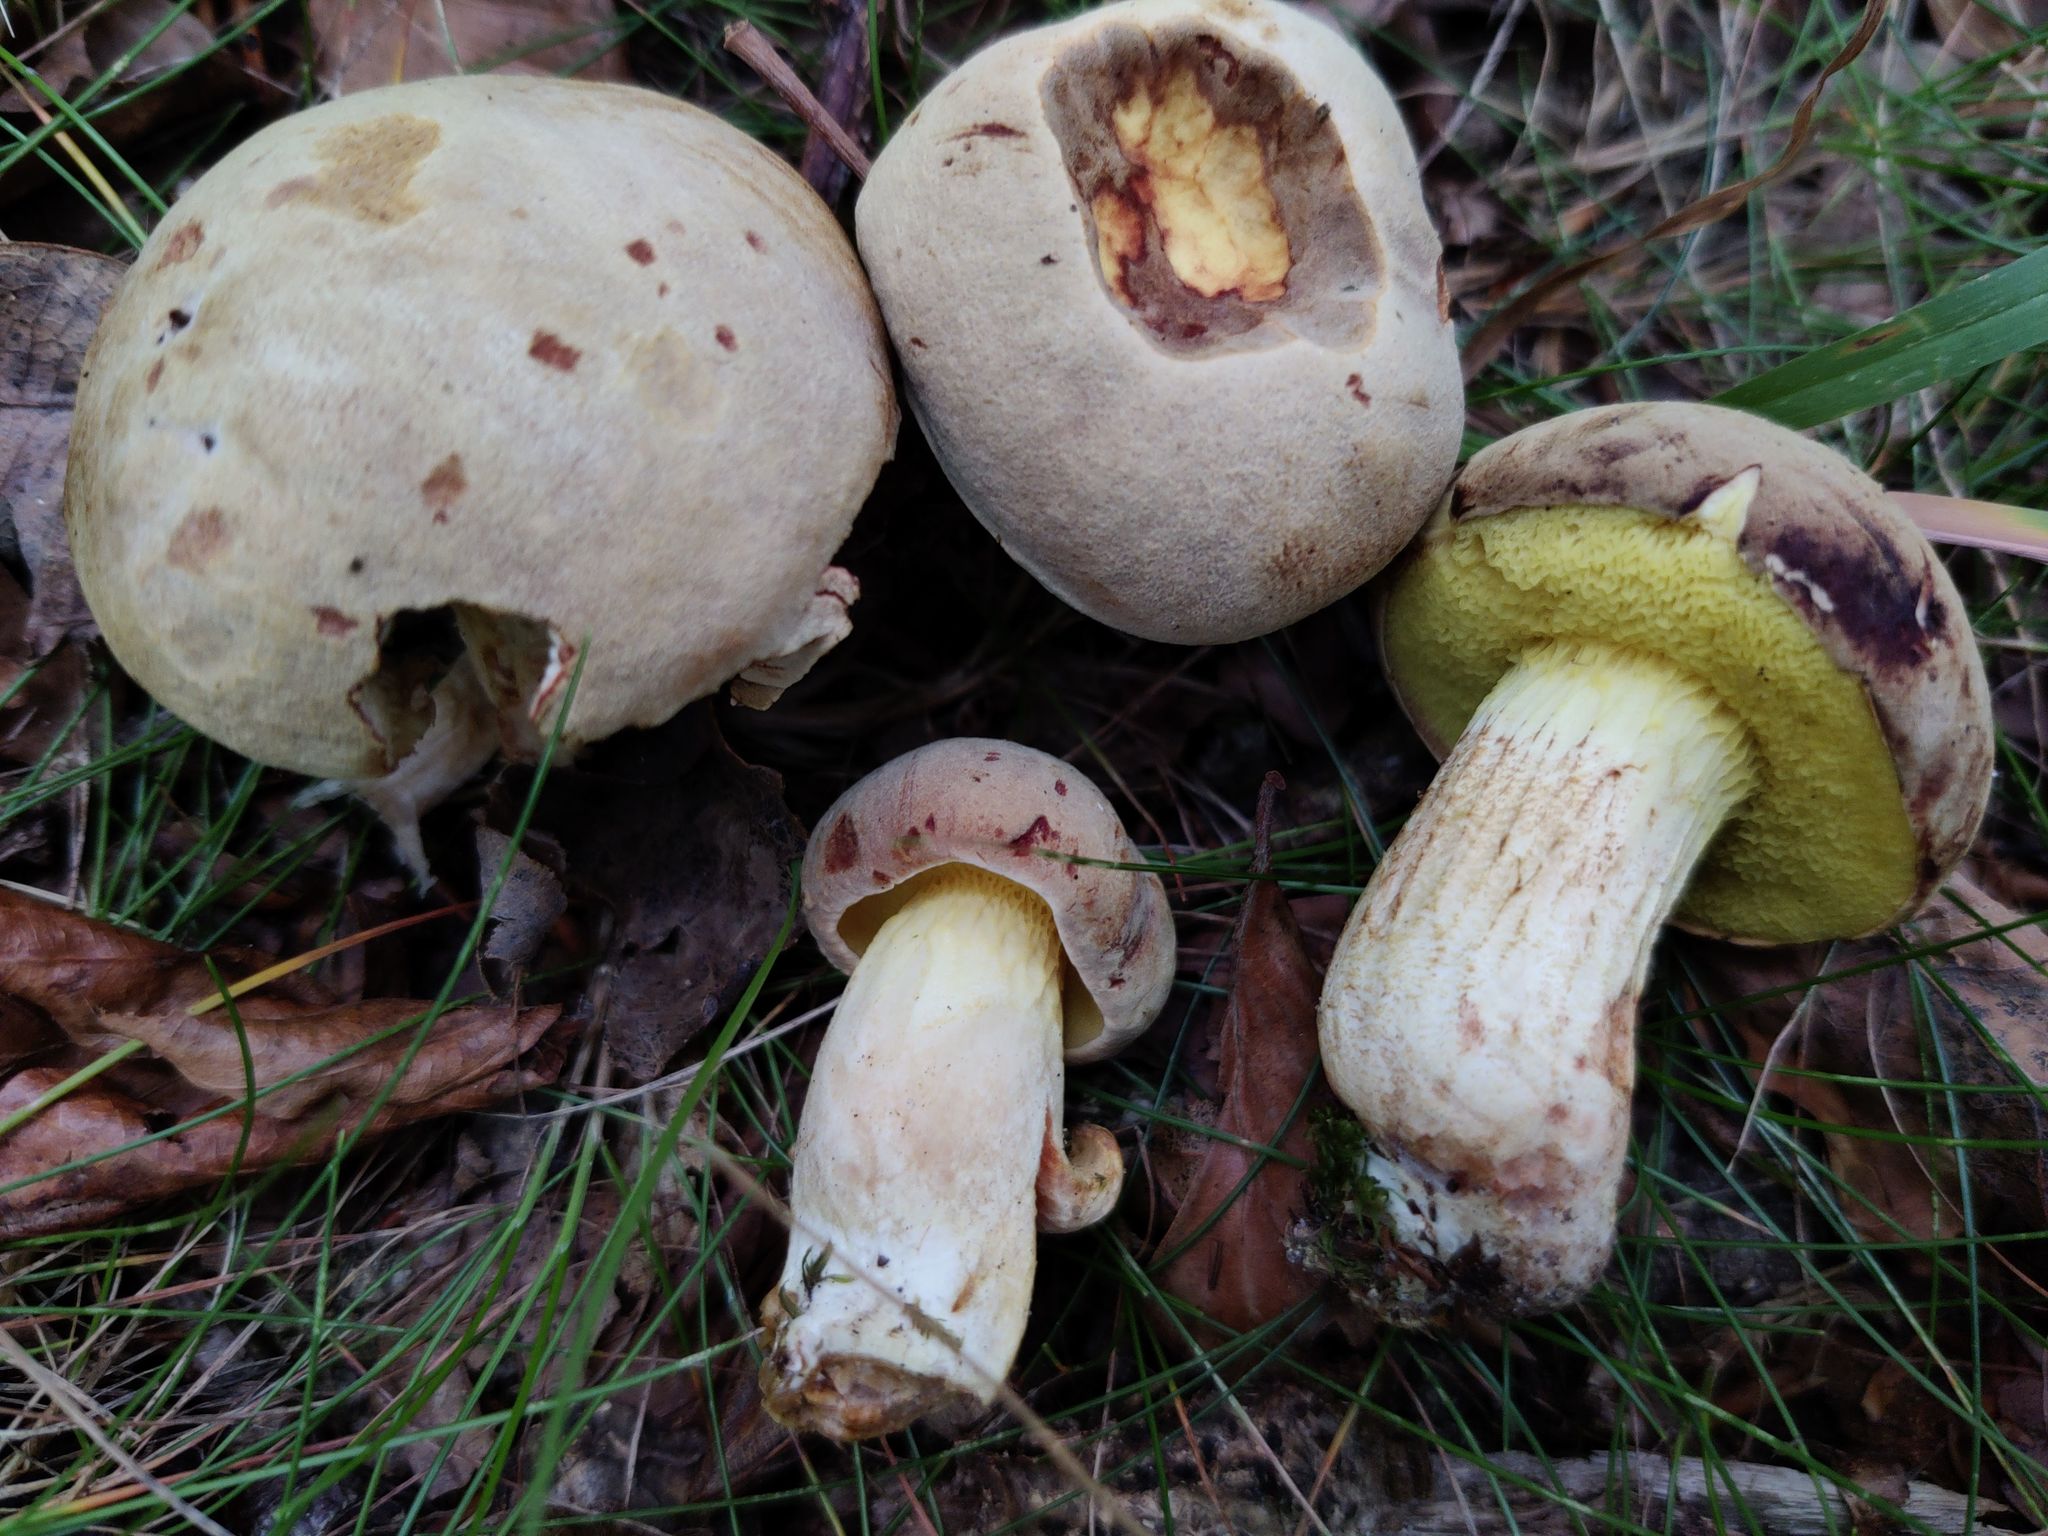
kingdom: Fungi
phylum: Basidiomycota
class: Agaricomycetes
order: Boletales
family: Boletaceae
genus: Xerocomus
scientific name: Xerocomus subtomentosus
